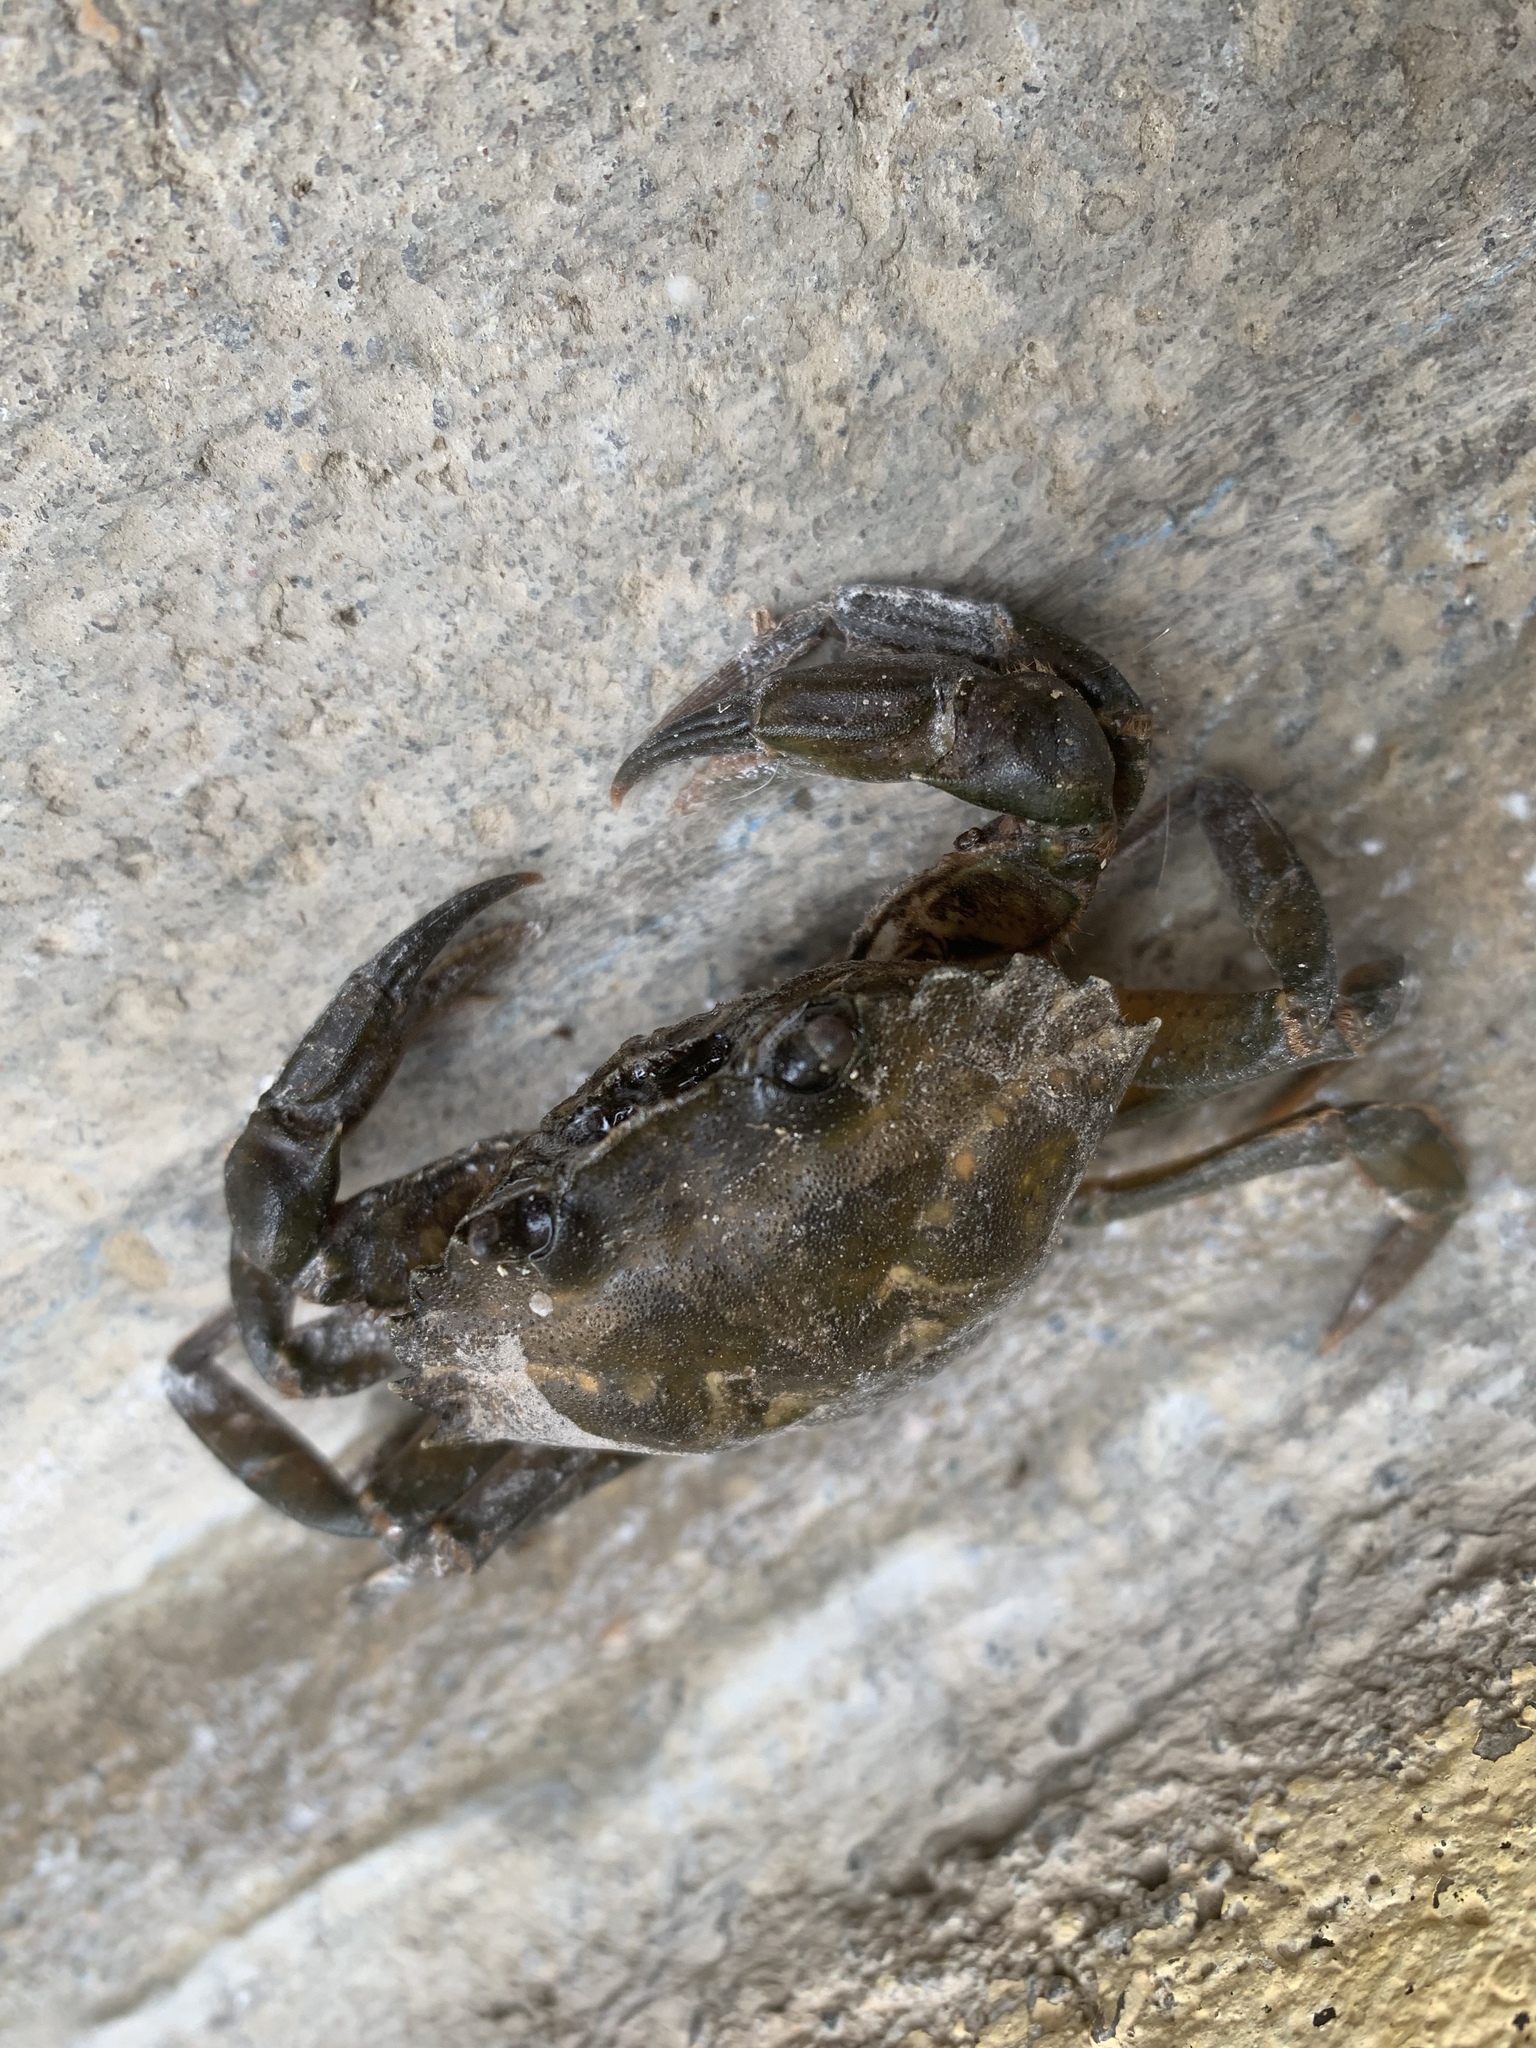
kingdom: Animalia
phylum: Arthropoda
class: Malacostraca
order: Decapoda
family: Carcinidae
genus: Carcinus
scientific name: Carcinus aestuarii
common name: Mediterranean green crab
